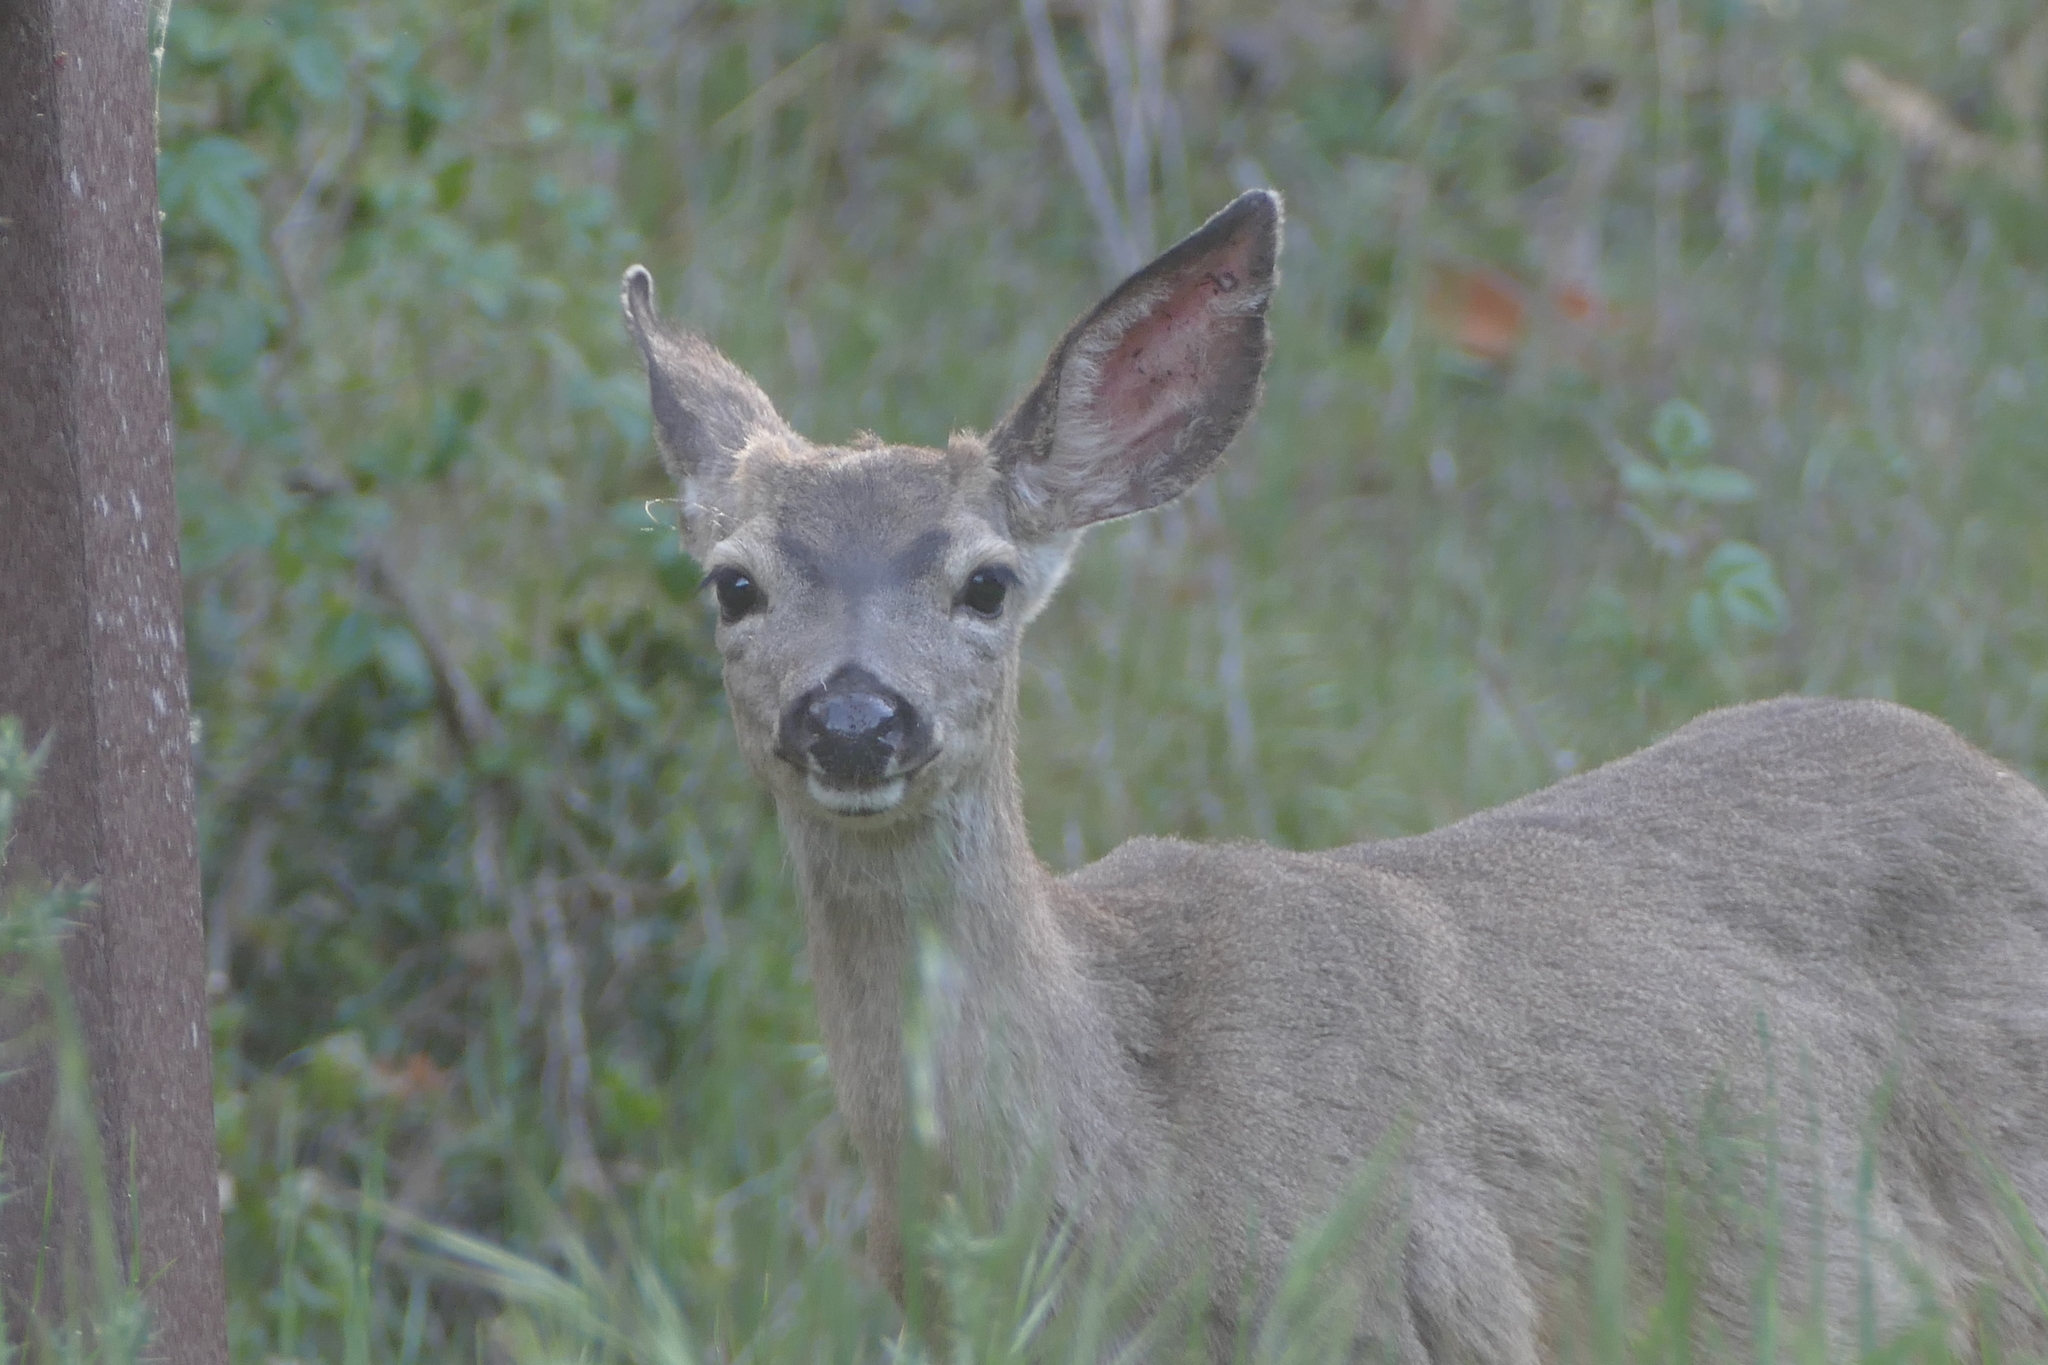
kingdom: Animalia
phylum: Chordata
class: Mammalia
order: Artiodactyla
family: Cervidae
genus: Odocoileus
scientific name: Odocoileus hemionus
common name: Mule deer
